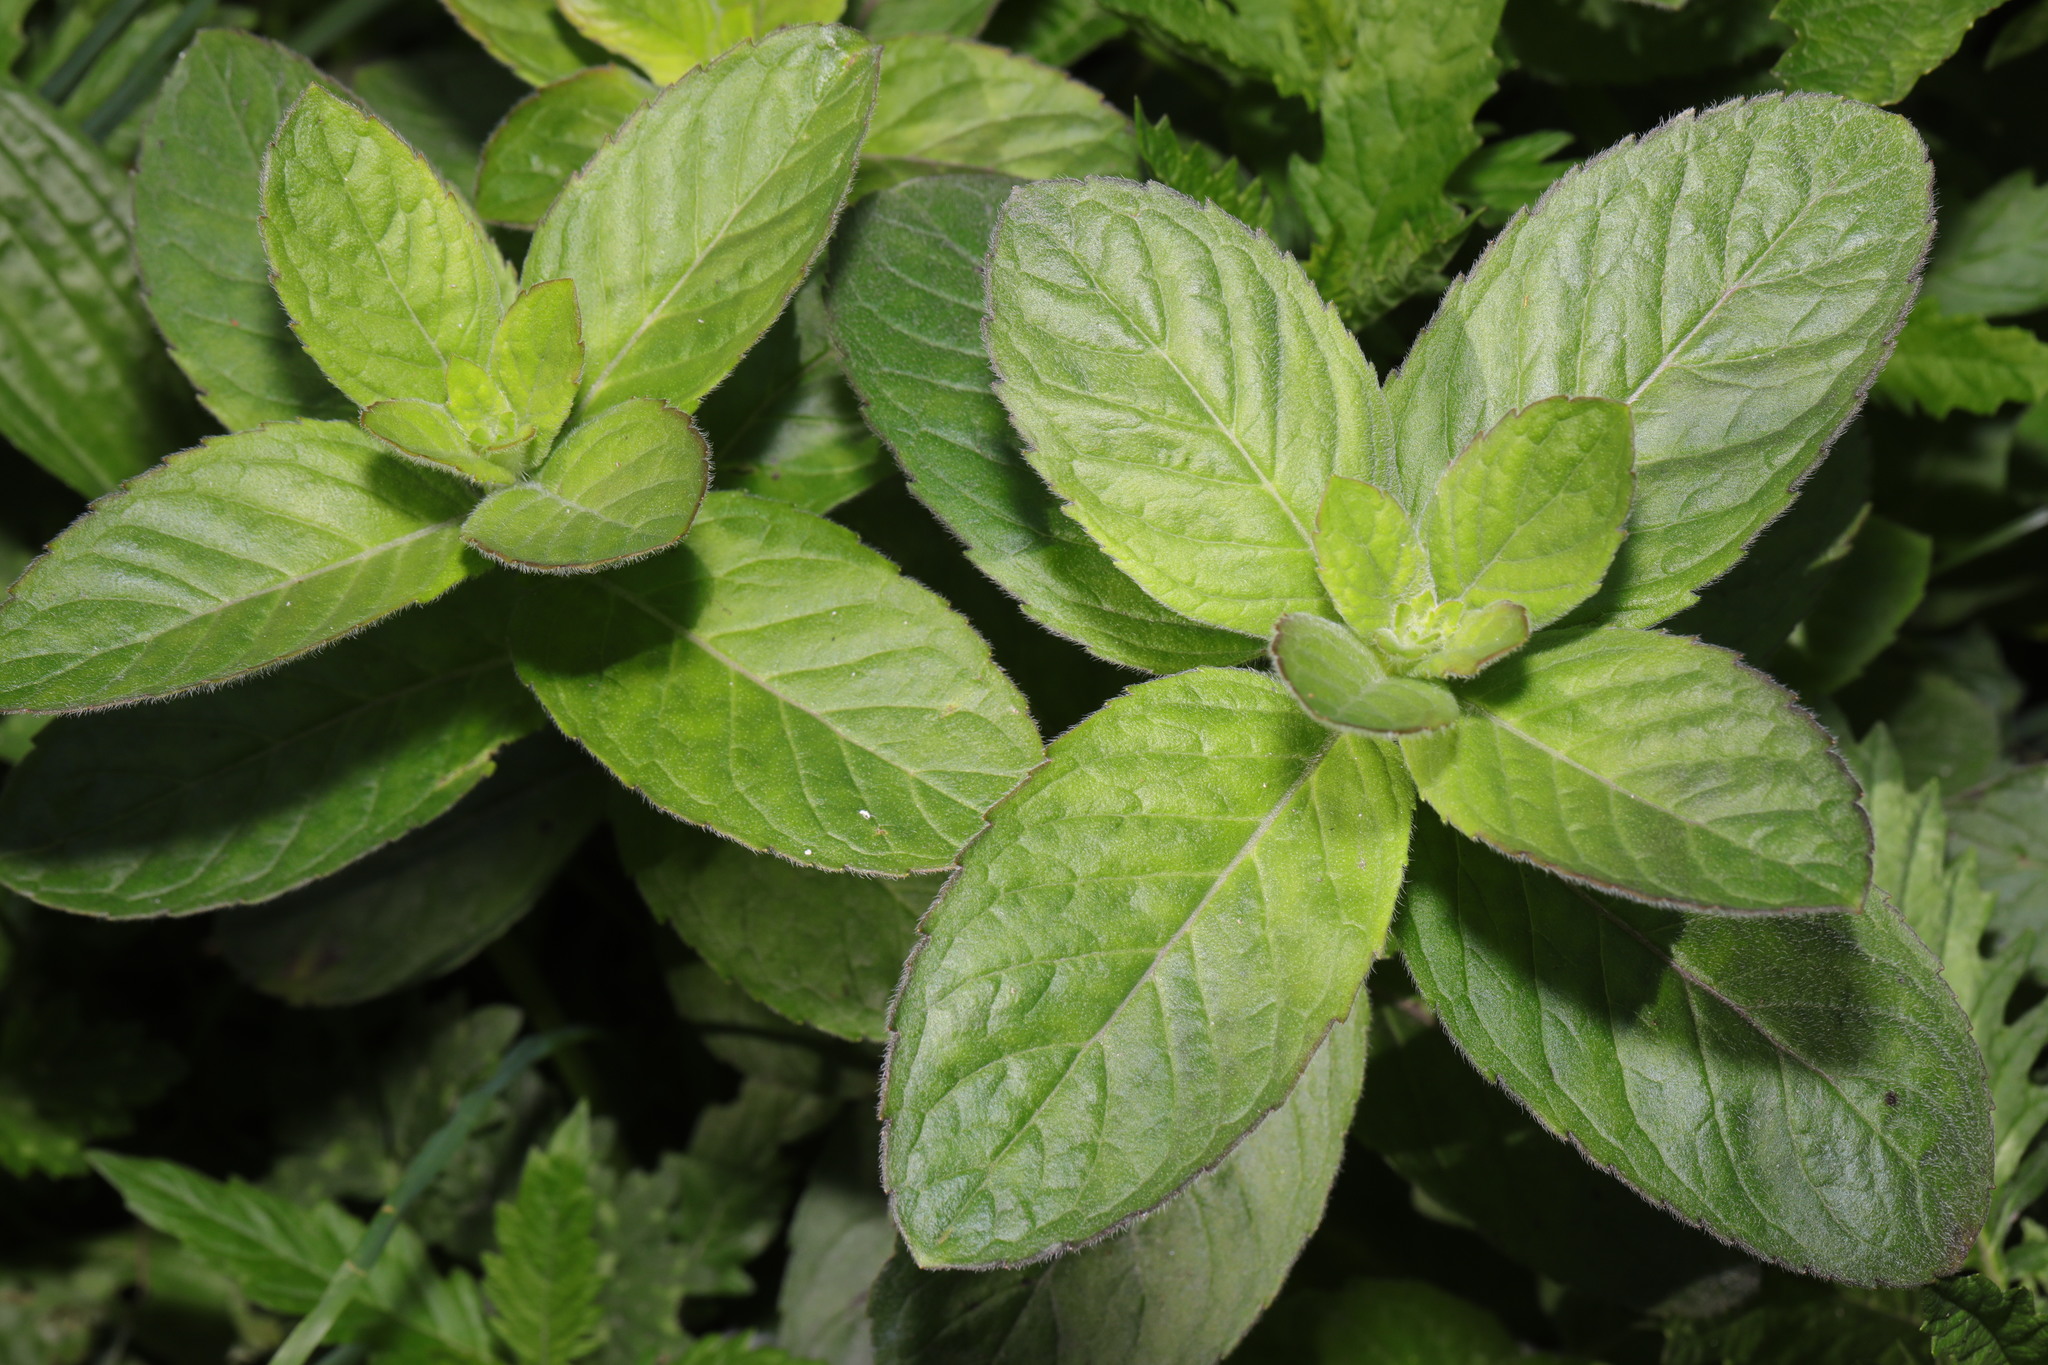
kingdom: Plantae
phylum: Tracheophyta
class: Magnoliopsida
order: Lamiales
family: Lamiaceae
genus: Mentha
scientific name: Mentha aquatica
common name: Water mint
